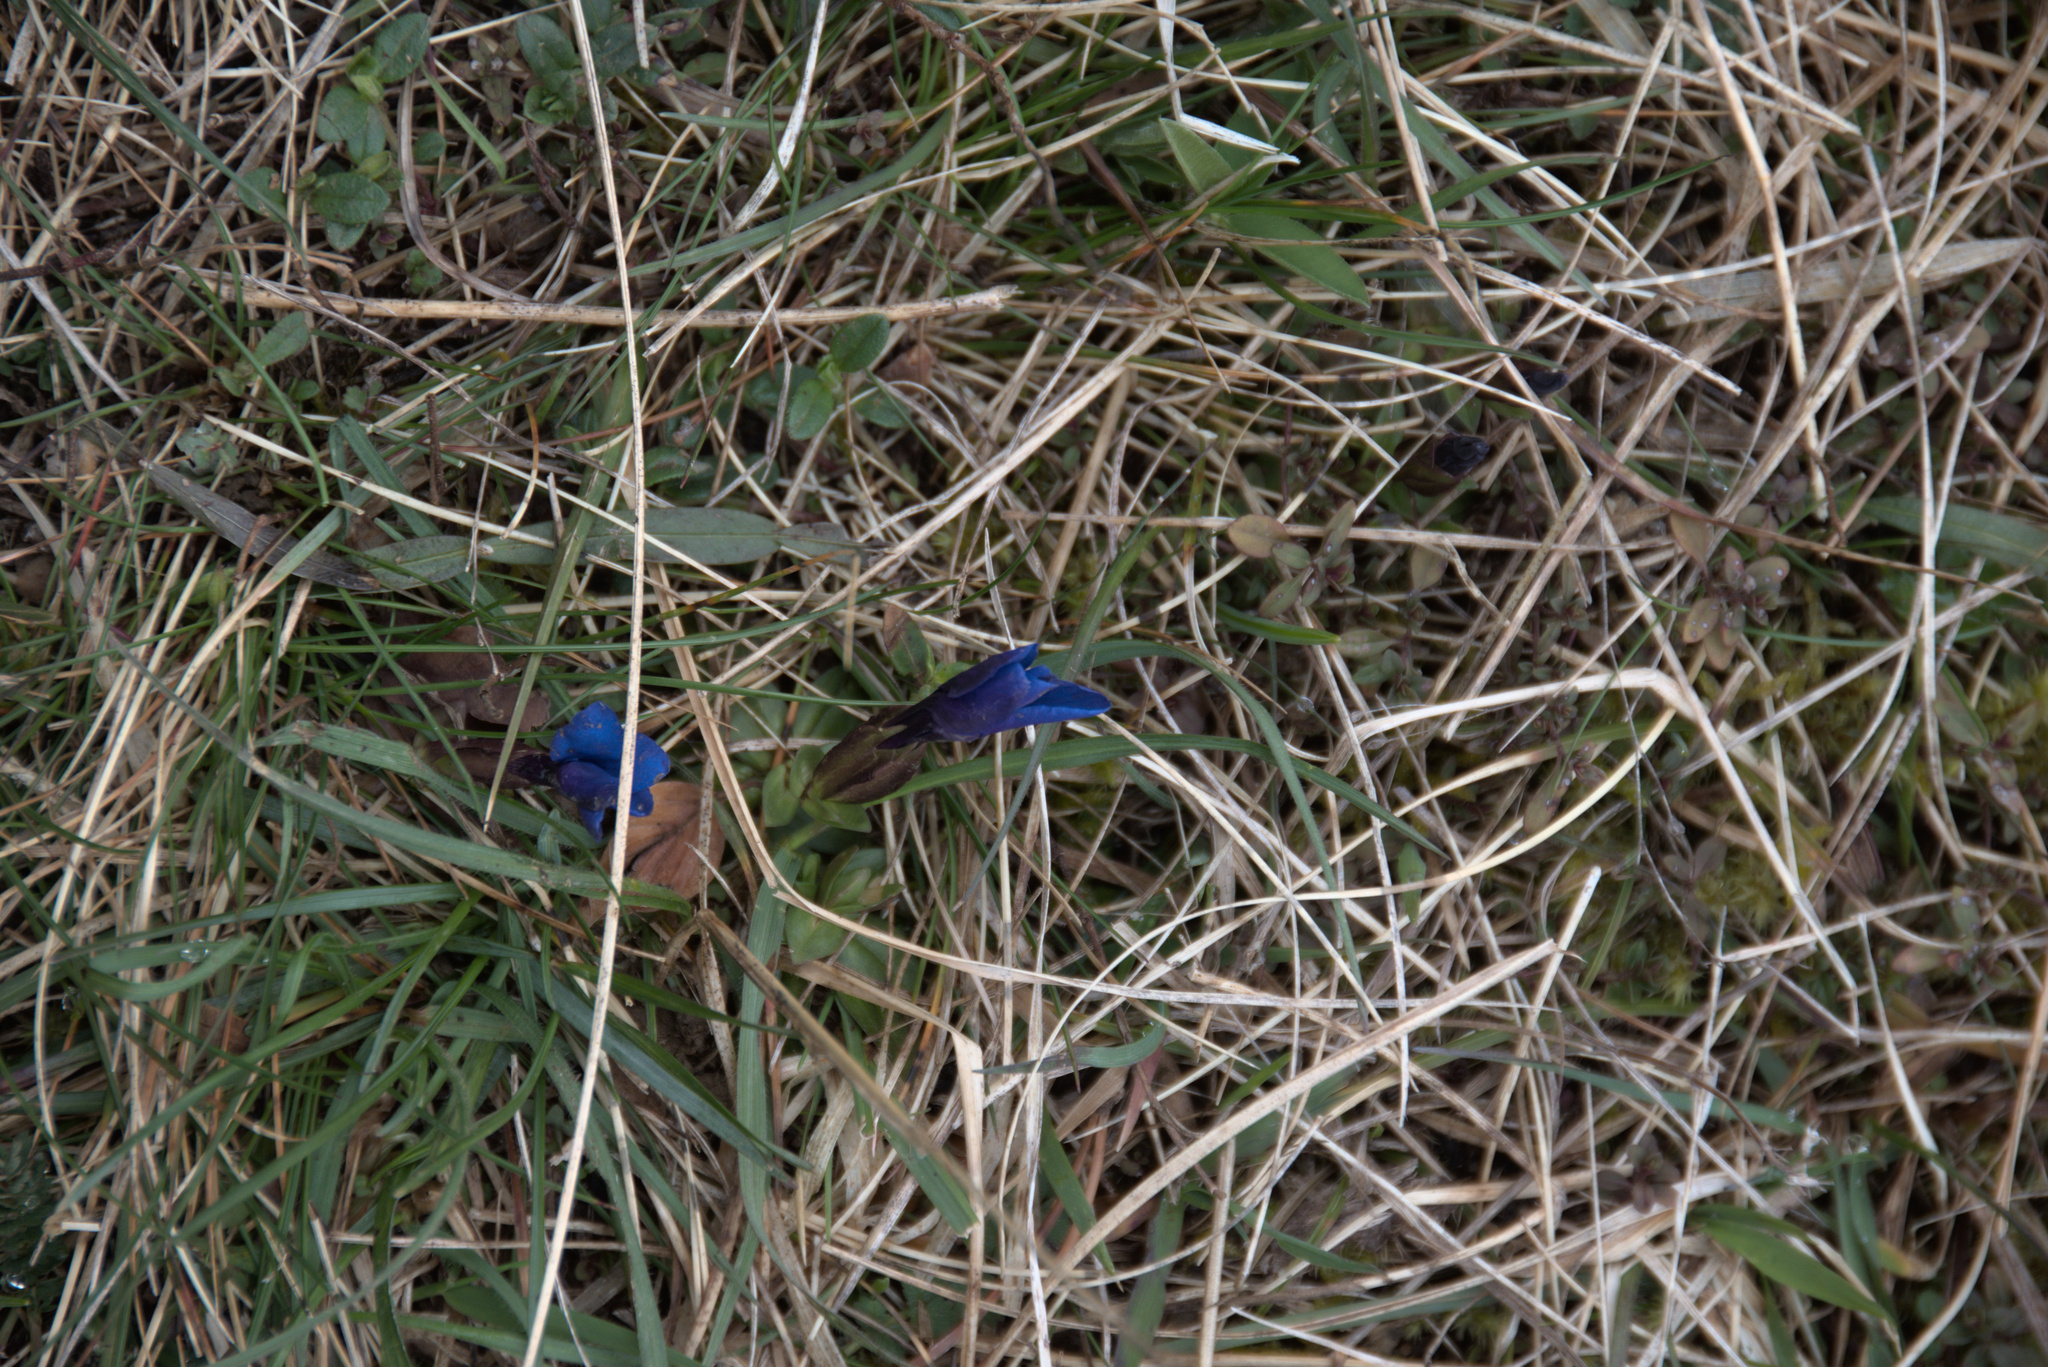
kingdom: Plantae
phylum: Tracheophyta
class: Magnoliopsida
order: Gentianales
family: Gentianaceae
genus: Gentiana
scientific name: Gentiana verna
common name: Spring gentian
